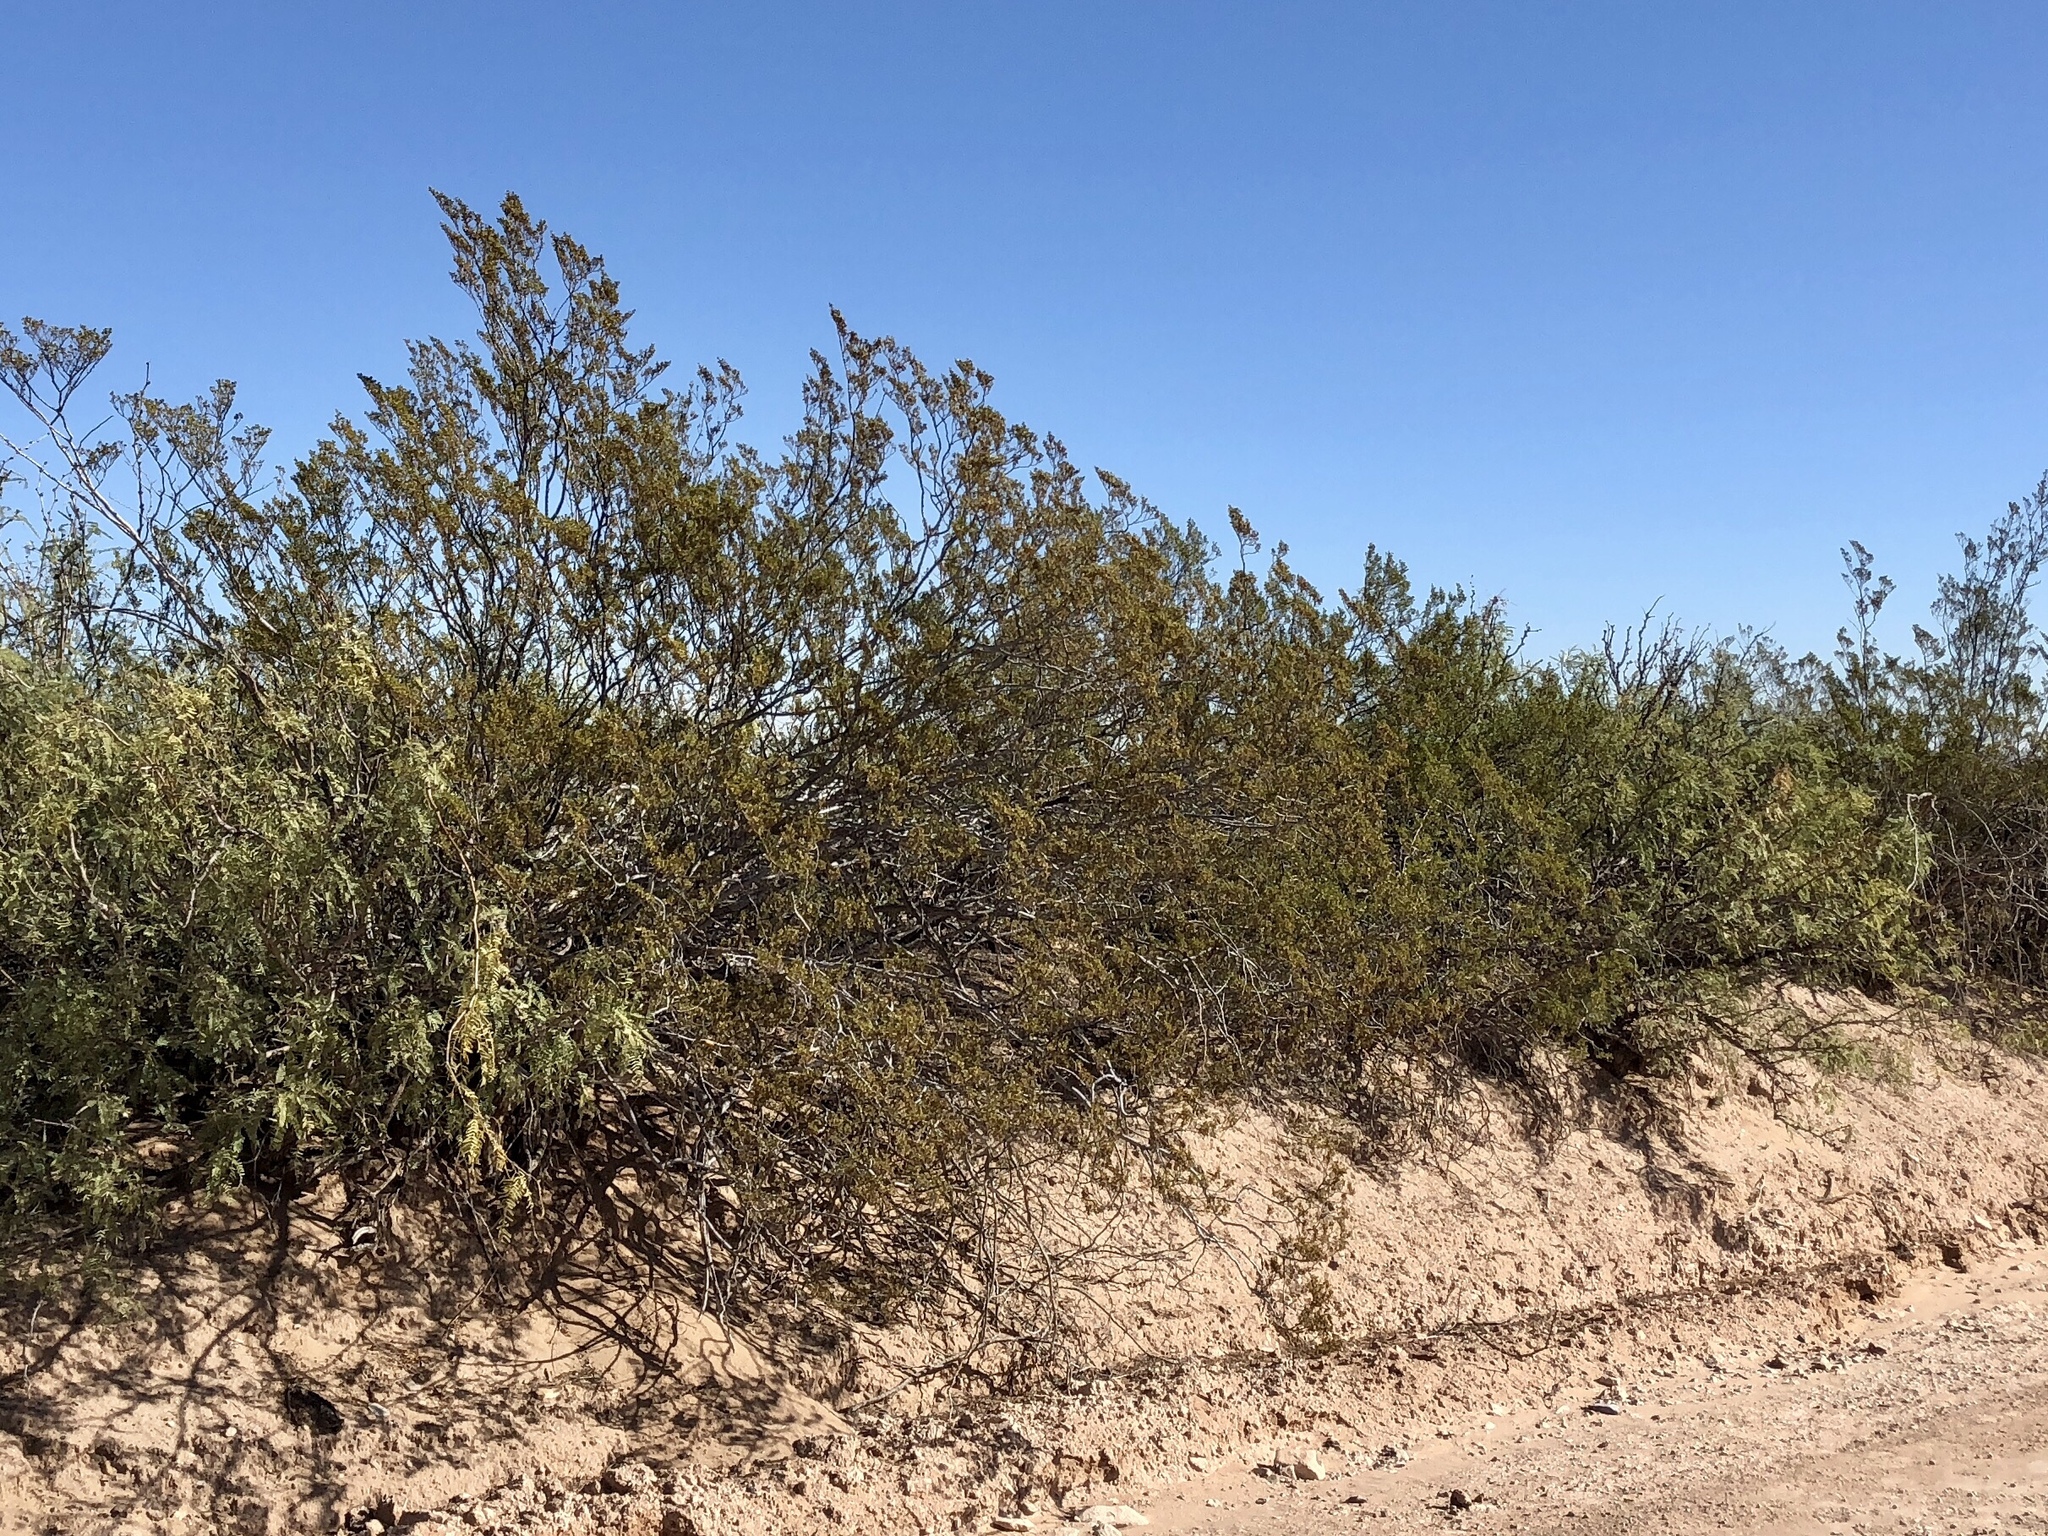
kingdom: Plantae
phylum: Tracheophyta
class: Magnoliopsida
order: Zygophyllales
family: Zygophyllaceae
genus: Larrea
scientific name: Larrea tridentata
